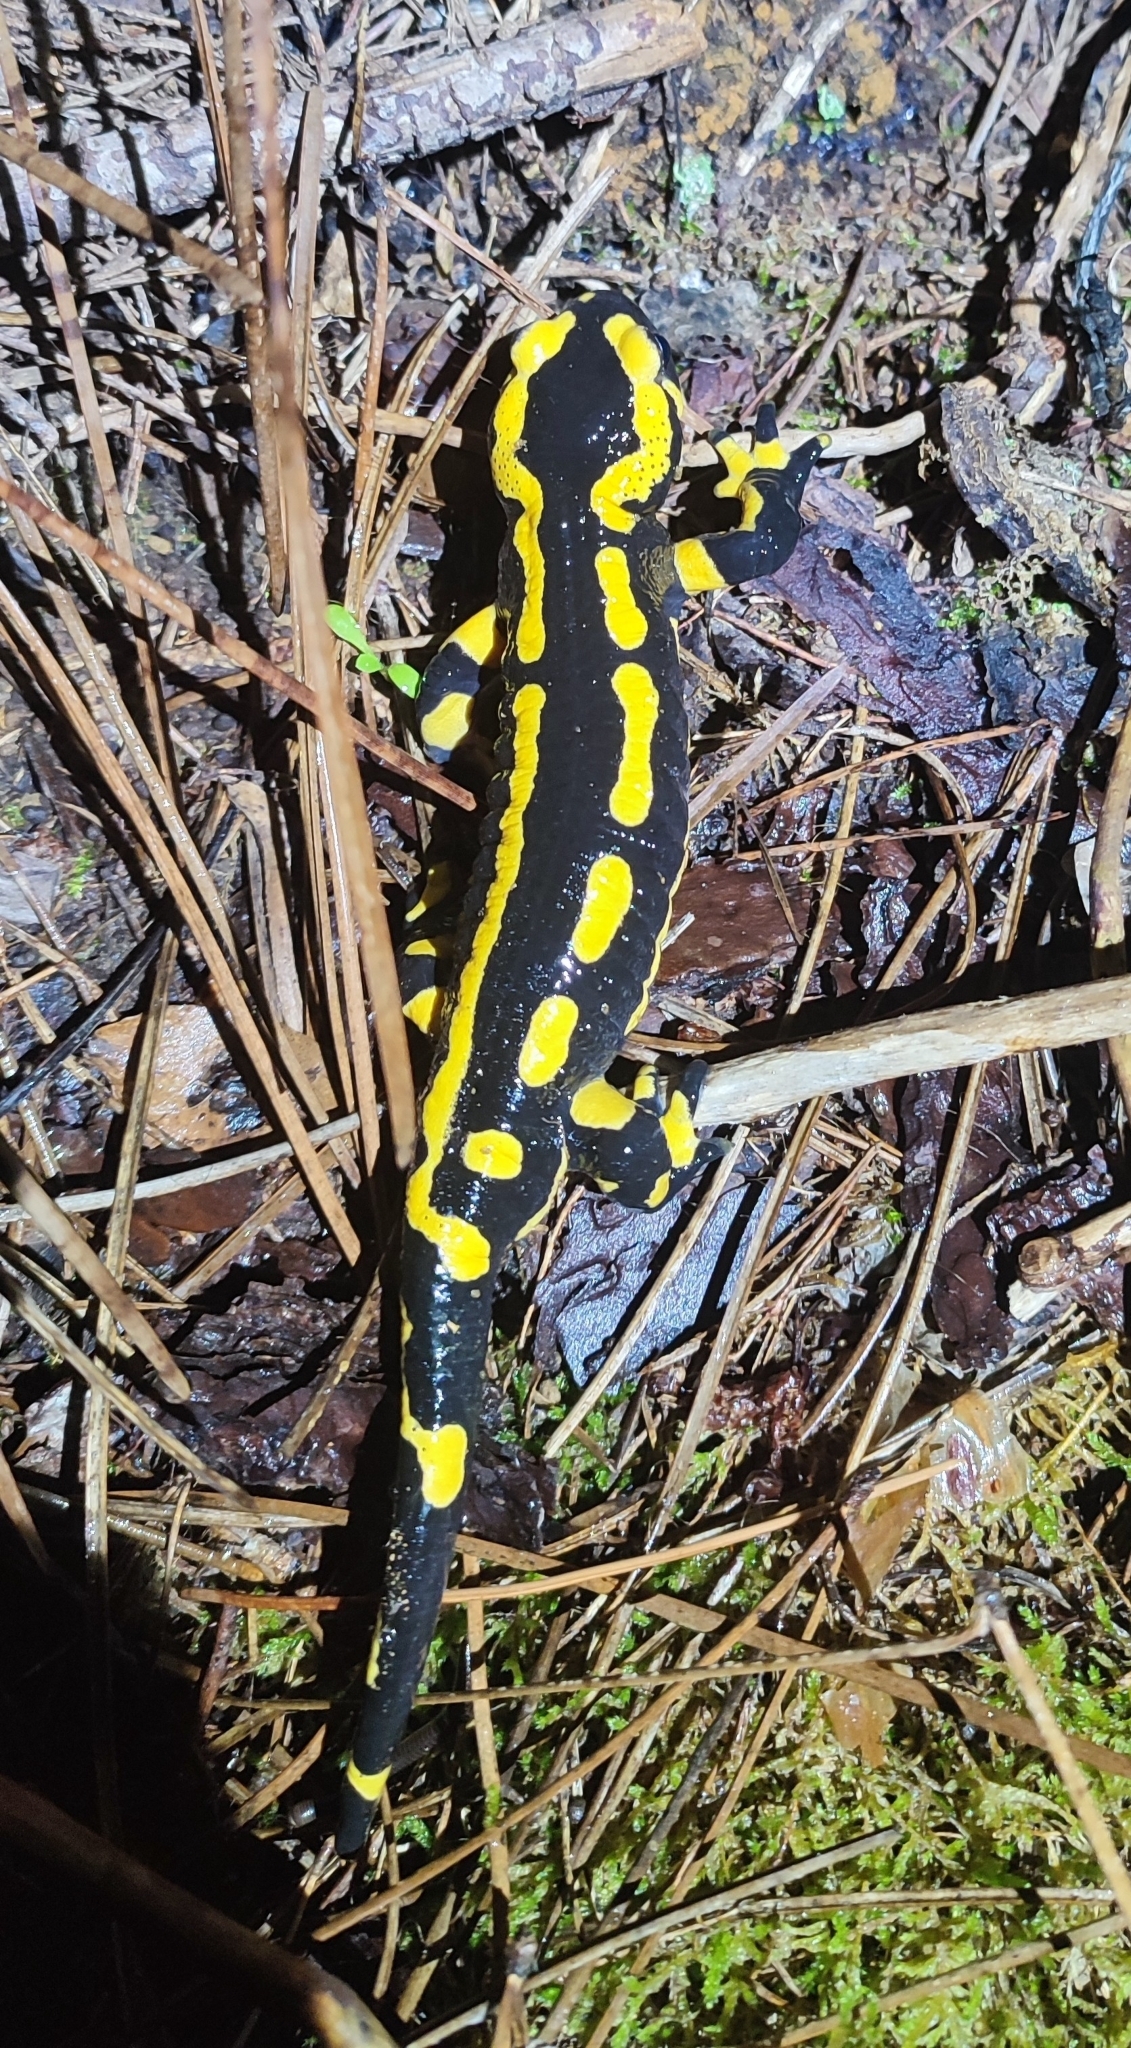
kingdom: Animalia
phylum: Chordata
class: Amphibia
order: Caudata
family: Salamandridae
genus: Salamandra
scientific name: Salamandra salamandra
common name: Fire salamander
